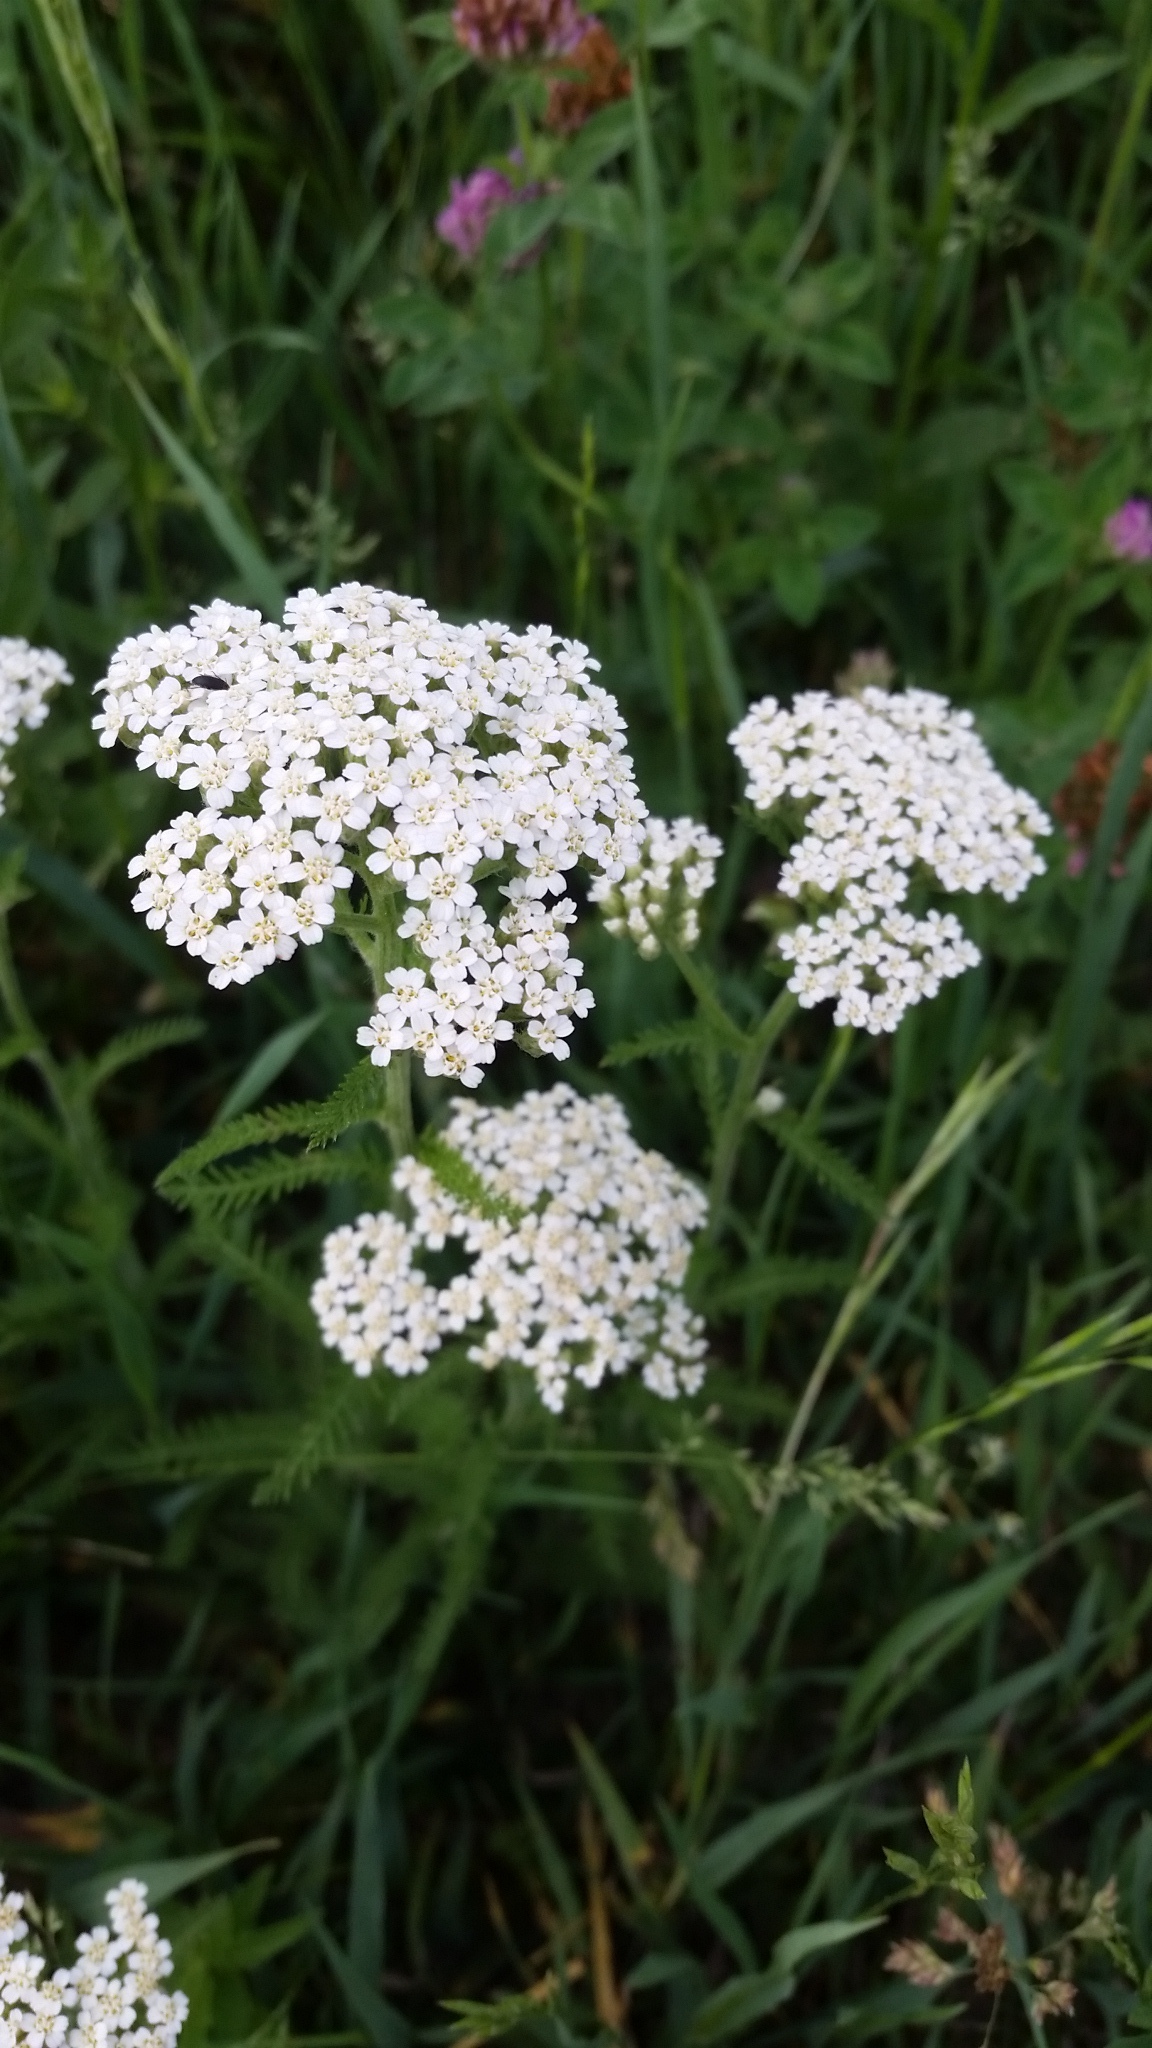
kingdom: Plantae
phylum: Tracheophyta
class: Magnoliopsida
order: Asterales
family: Asteraceae
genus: Achillea
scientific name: Achillea millefolium
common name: Yarrow
